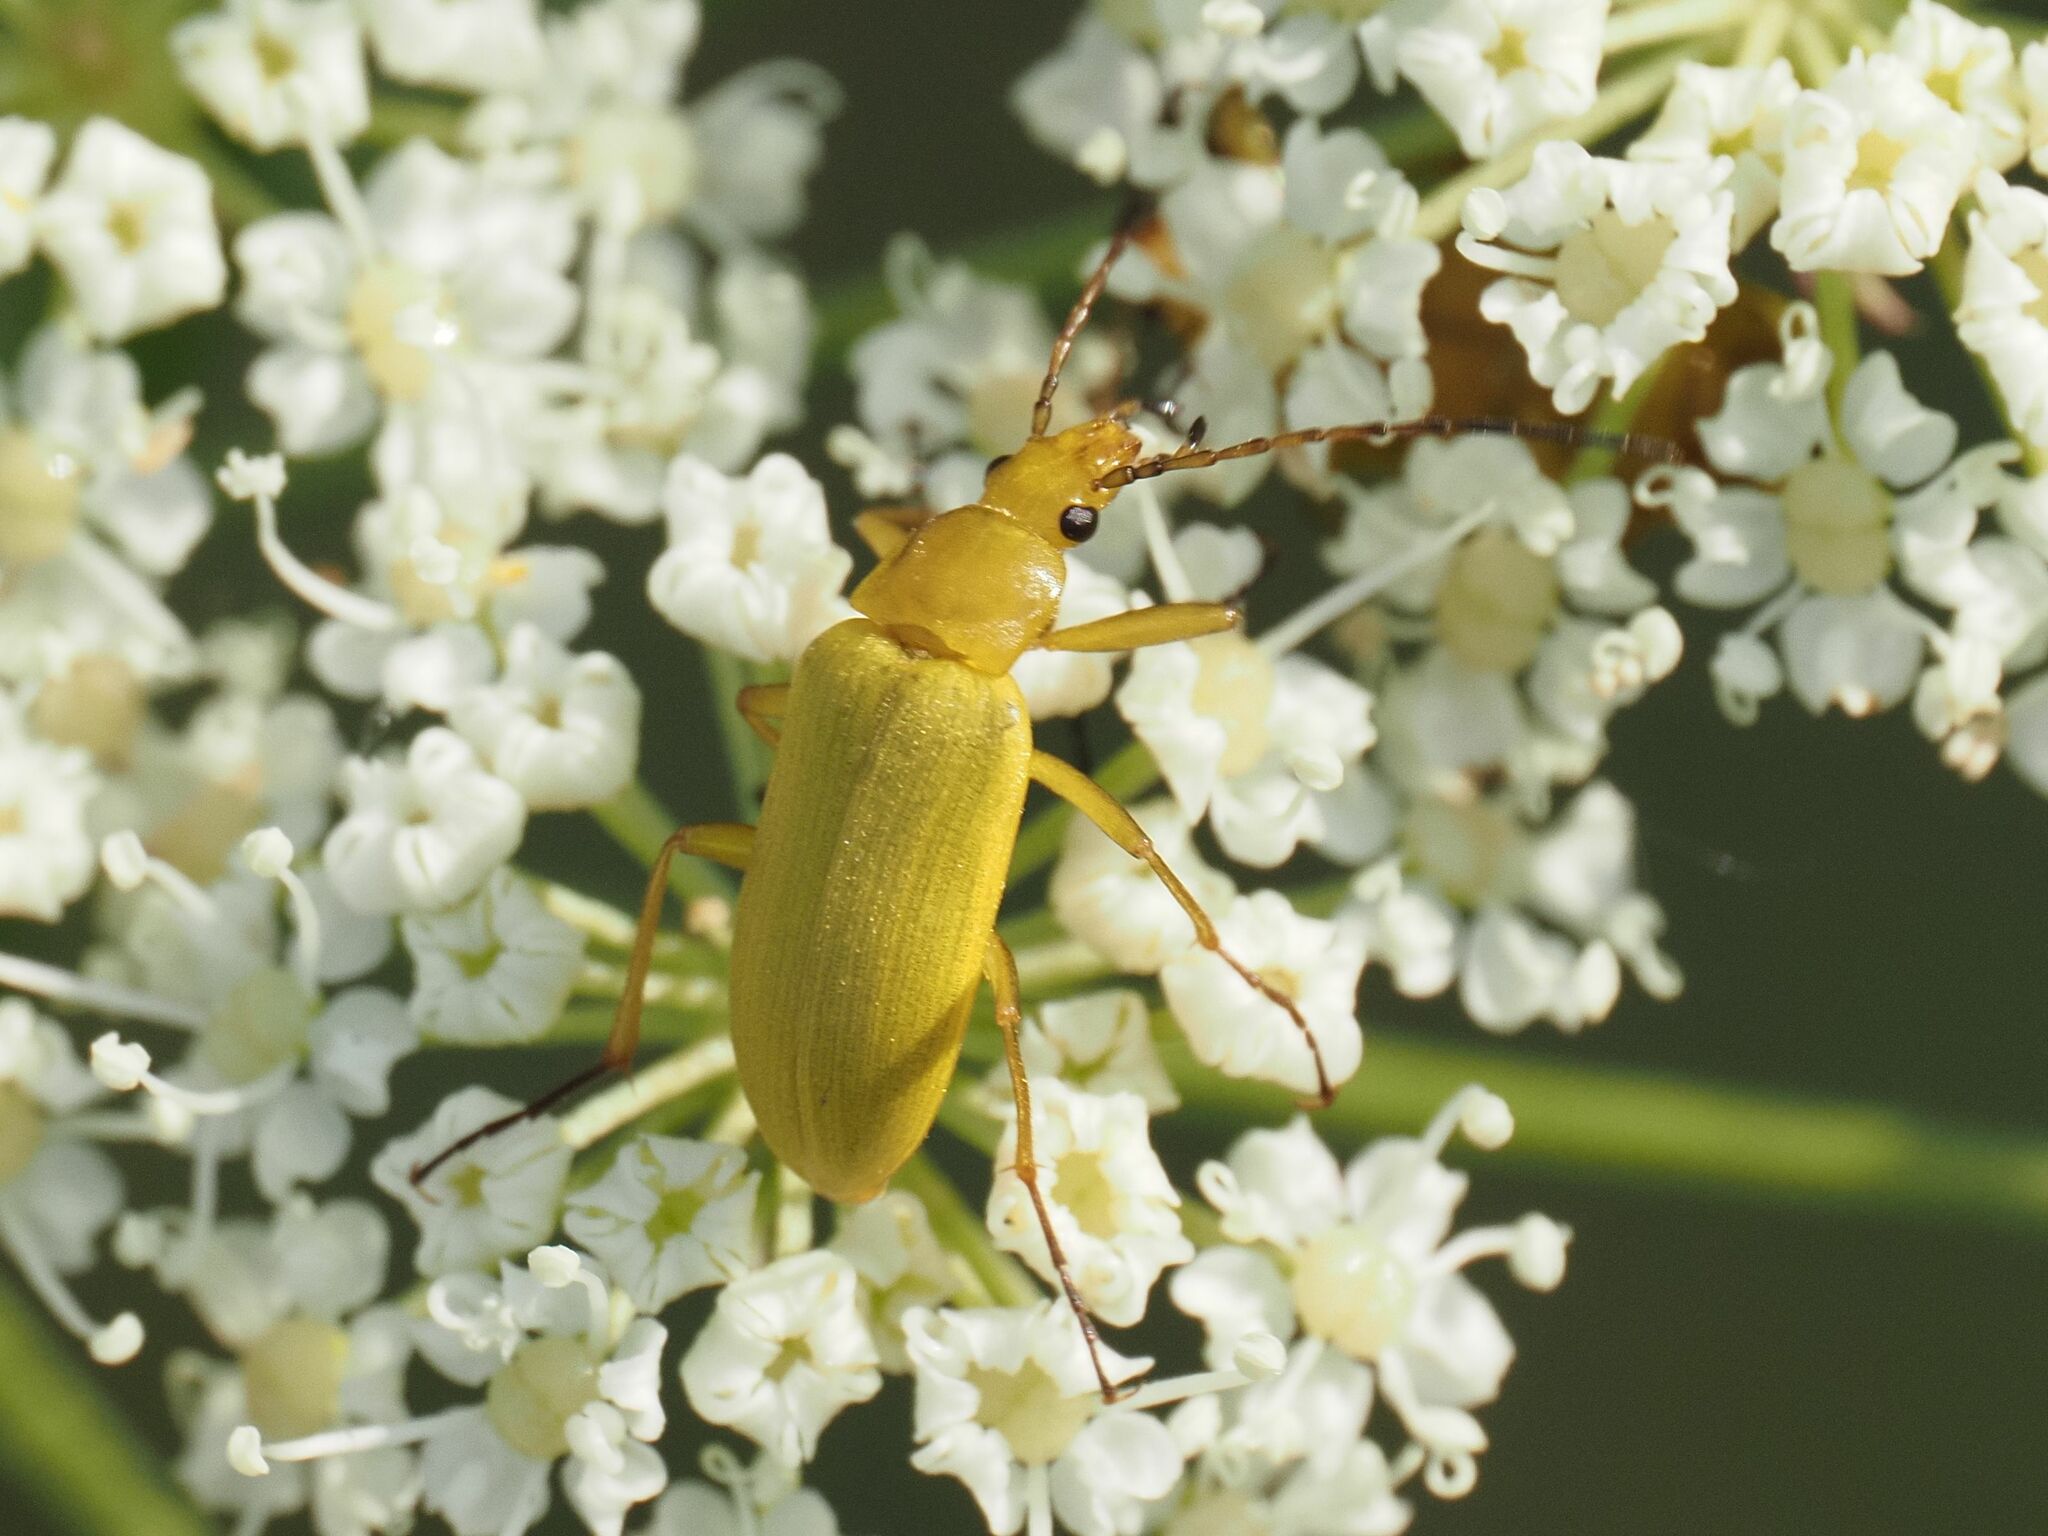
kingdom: Animalia
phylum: Arthropoda
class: Insecta
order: Coleoptera
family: Tenebrionidae
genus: Cteniopus
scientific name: Cteniopus sulphureus
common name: Sulphur beetle
